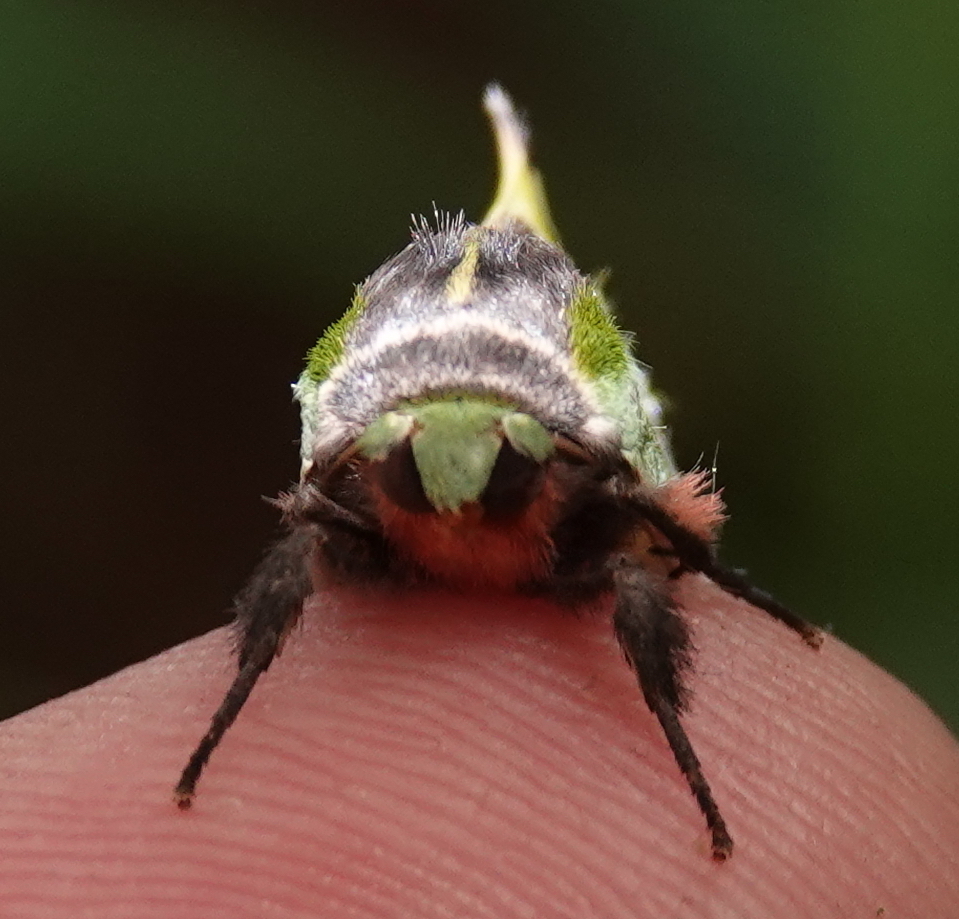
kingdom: Animalia
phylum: Arthropoda
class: Insecta
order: Lepidoptera
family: Notodontidae
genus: Zelica
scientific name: Zelica thalassina
